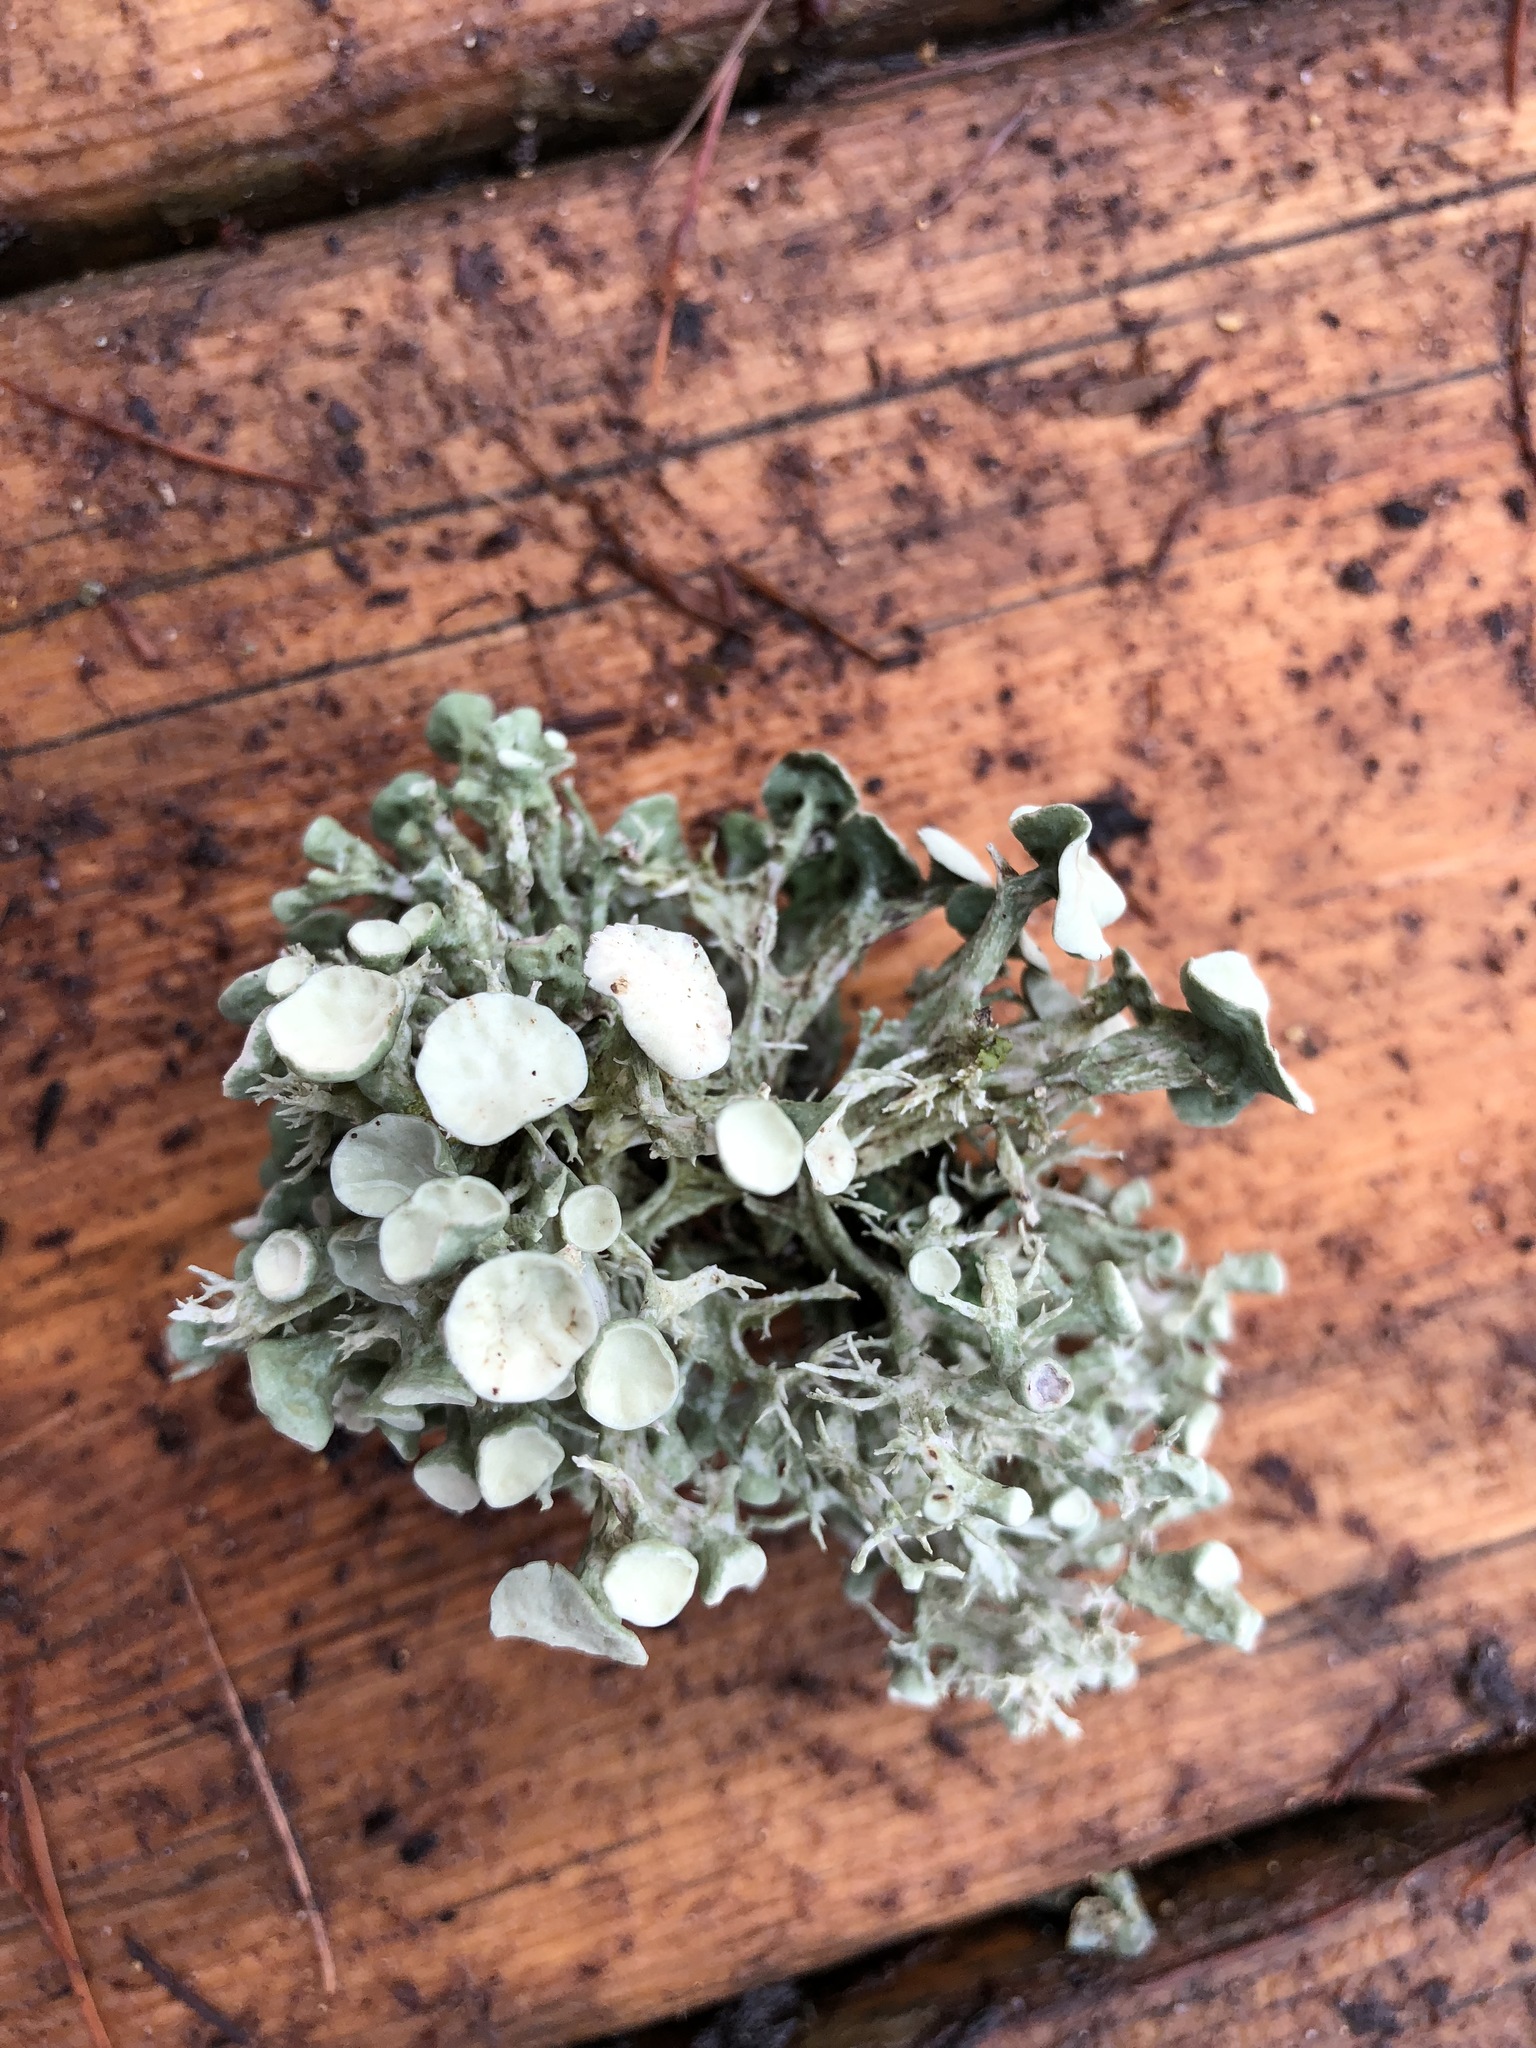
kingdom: Fungi
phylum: Ascomycota
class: Lecanoromycetes
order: Lecanorales
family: Ramalinaceae
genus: Ramalina
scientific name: Ramalina fastigiata
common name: Dotted ribbon lichen
